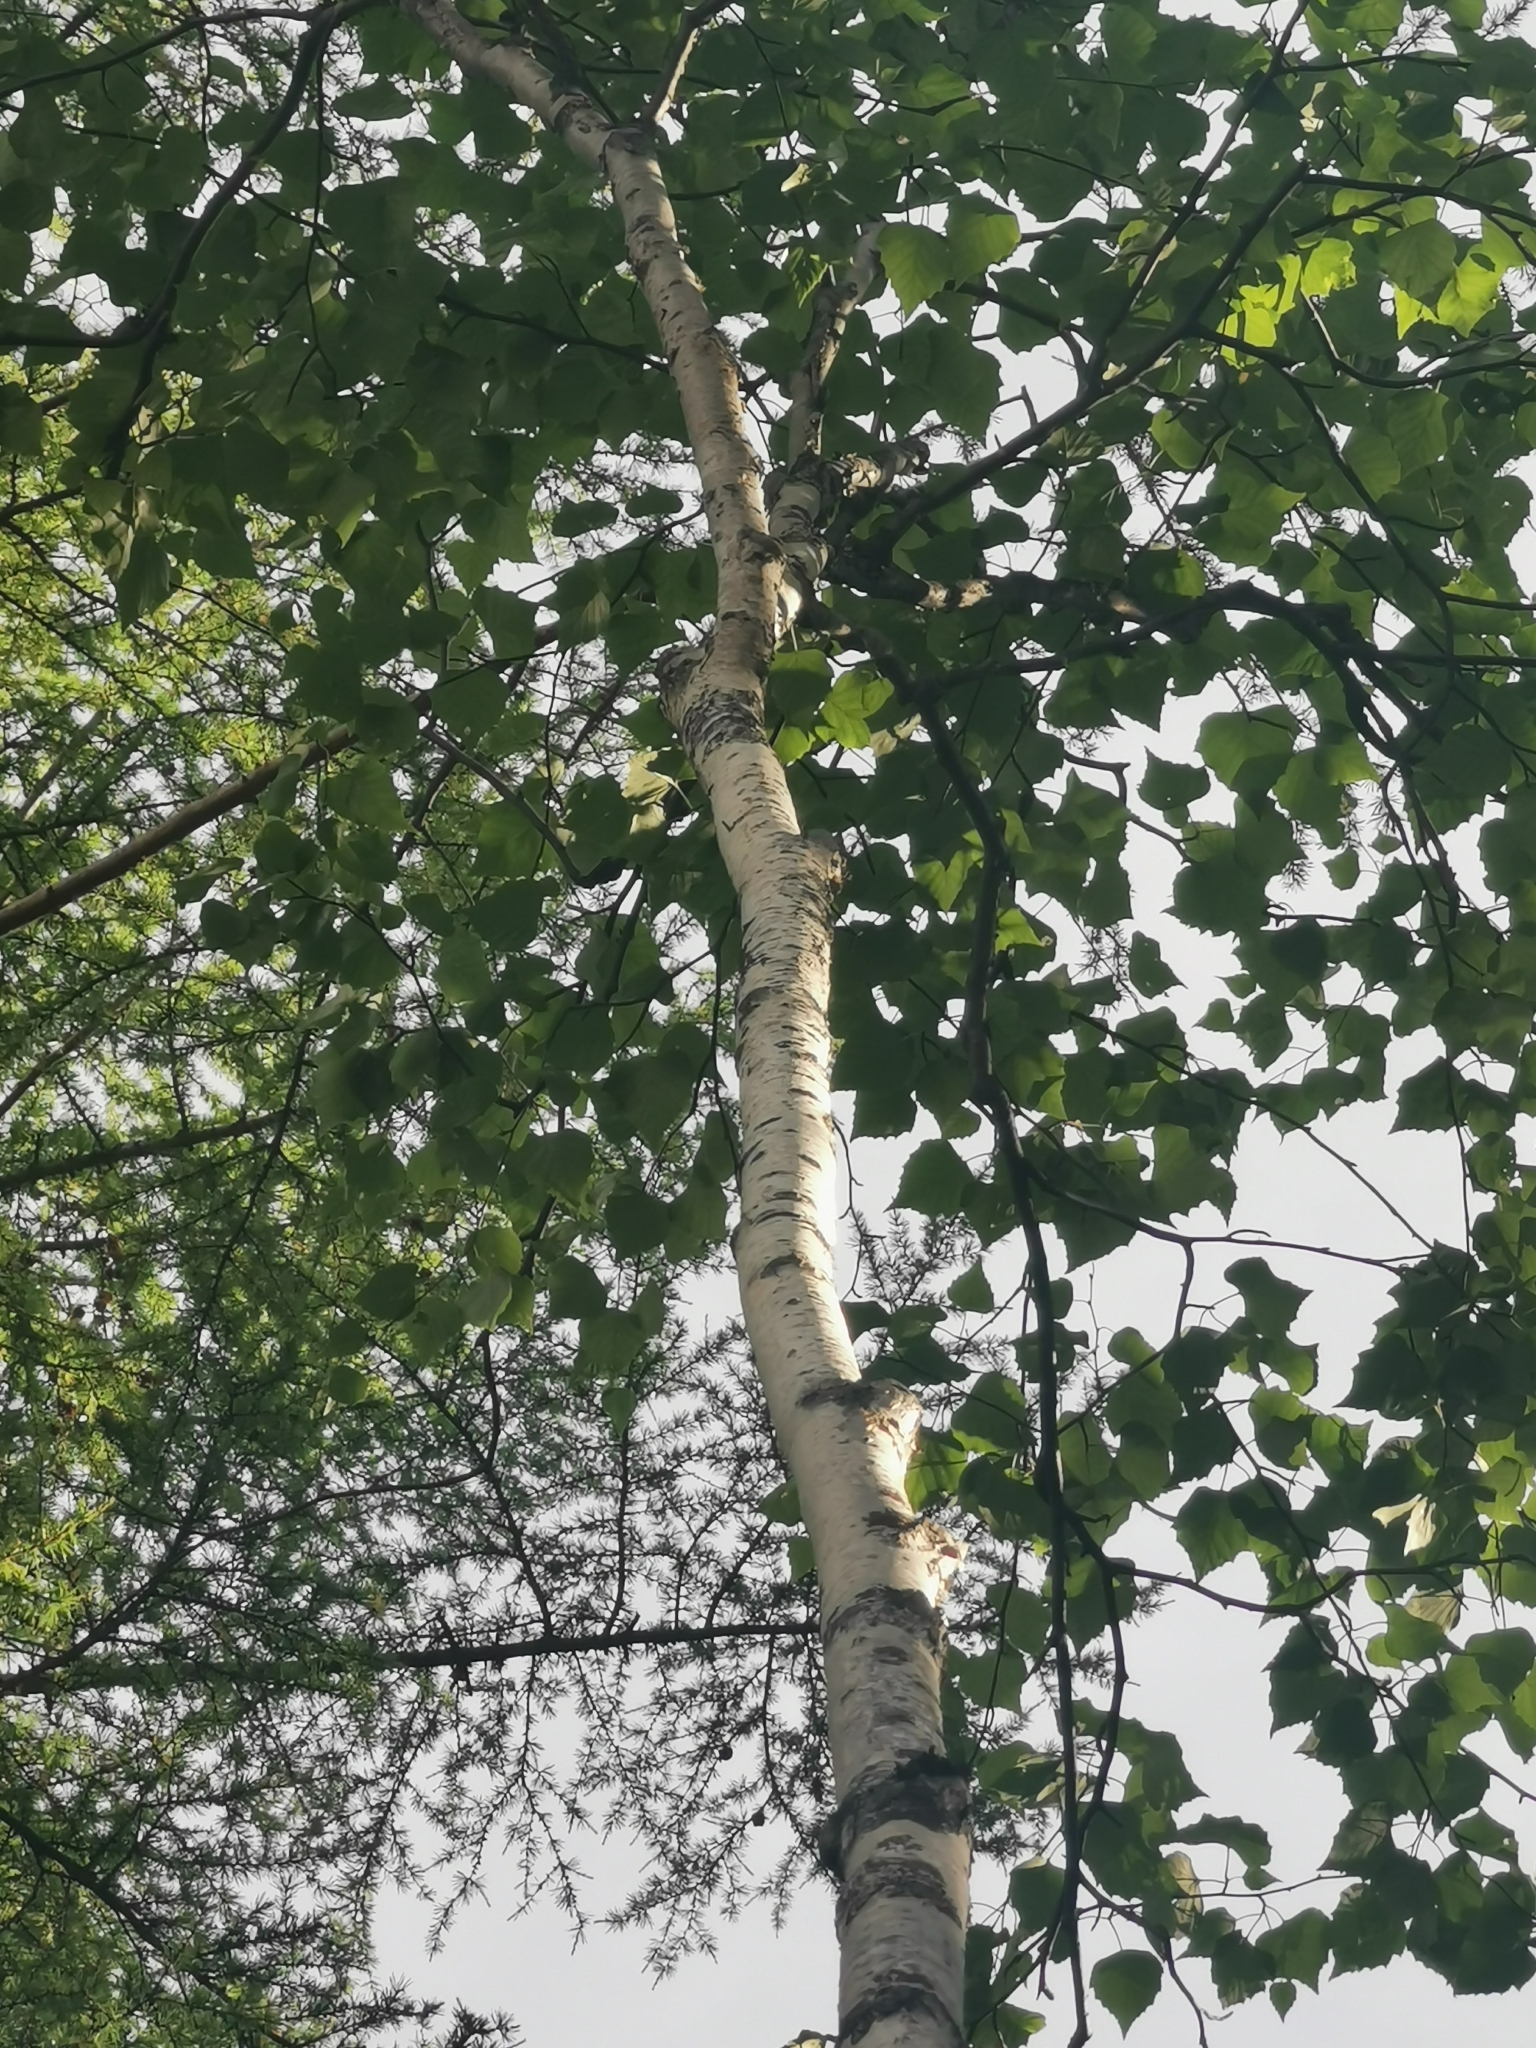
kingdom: Plantae
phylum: Tracheophyta
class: Magnoliopsida
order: Fagales
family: Betulaceae
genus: Betula
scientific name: Betula pendula
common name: Silver birch
